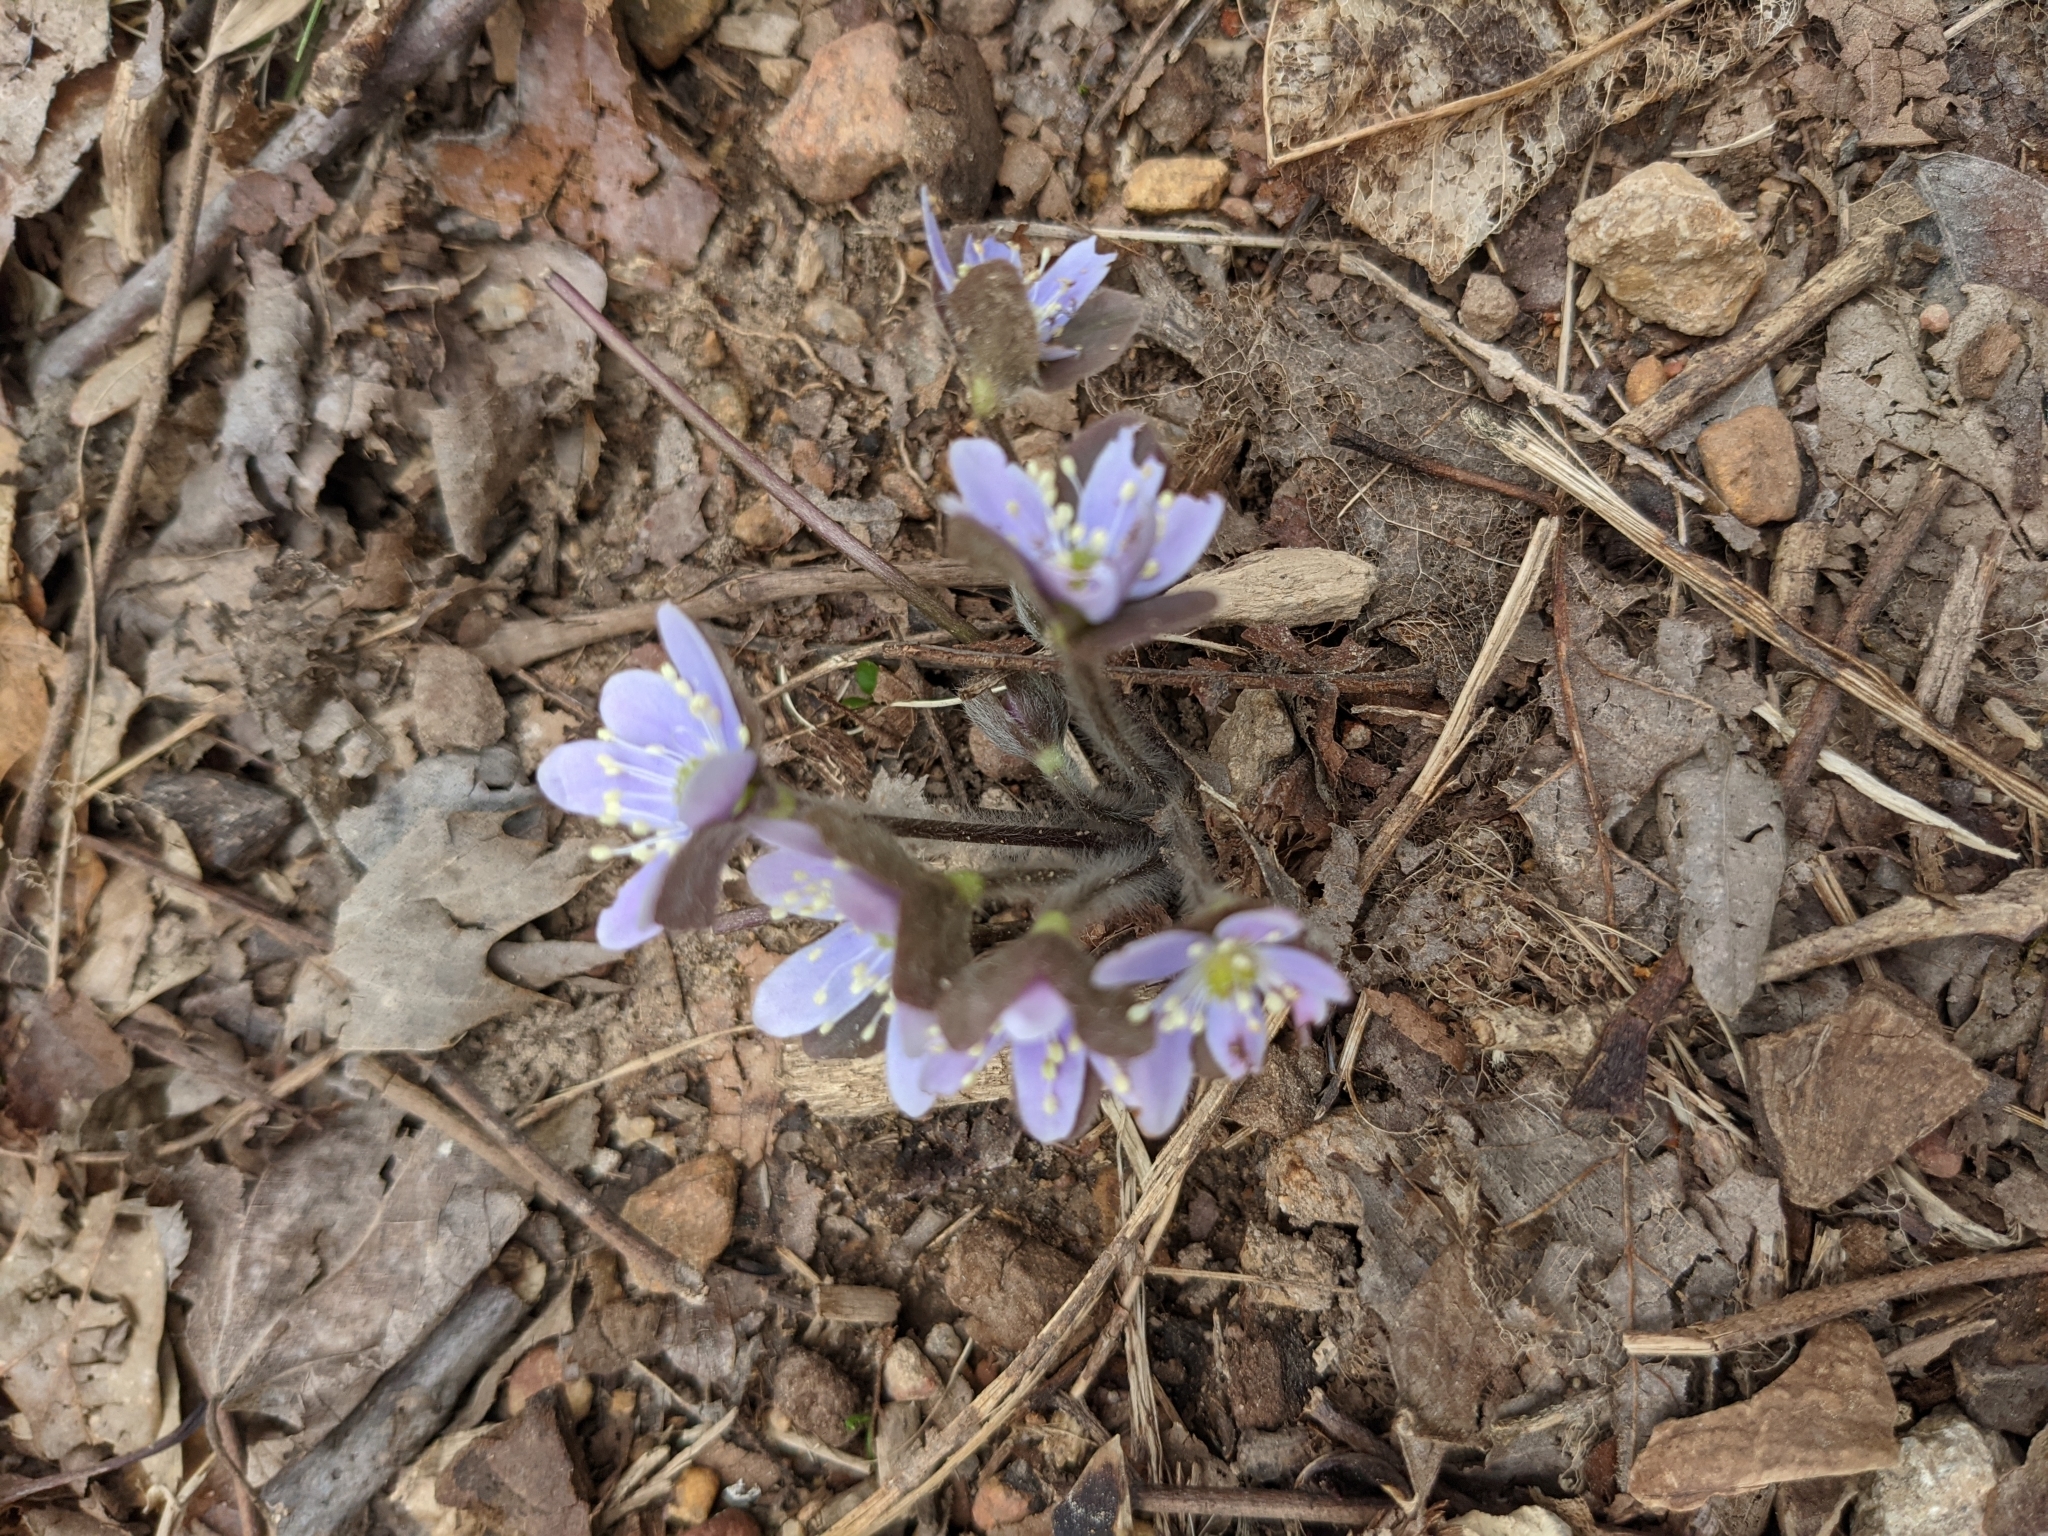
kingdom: Plantae
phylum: Tracheophyta
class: Magnoliopsida
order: Ranunculales
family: Ranunculaceae
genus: Hepatica
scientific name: Hepatica americana
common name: American hepatica
